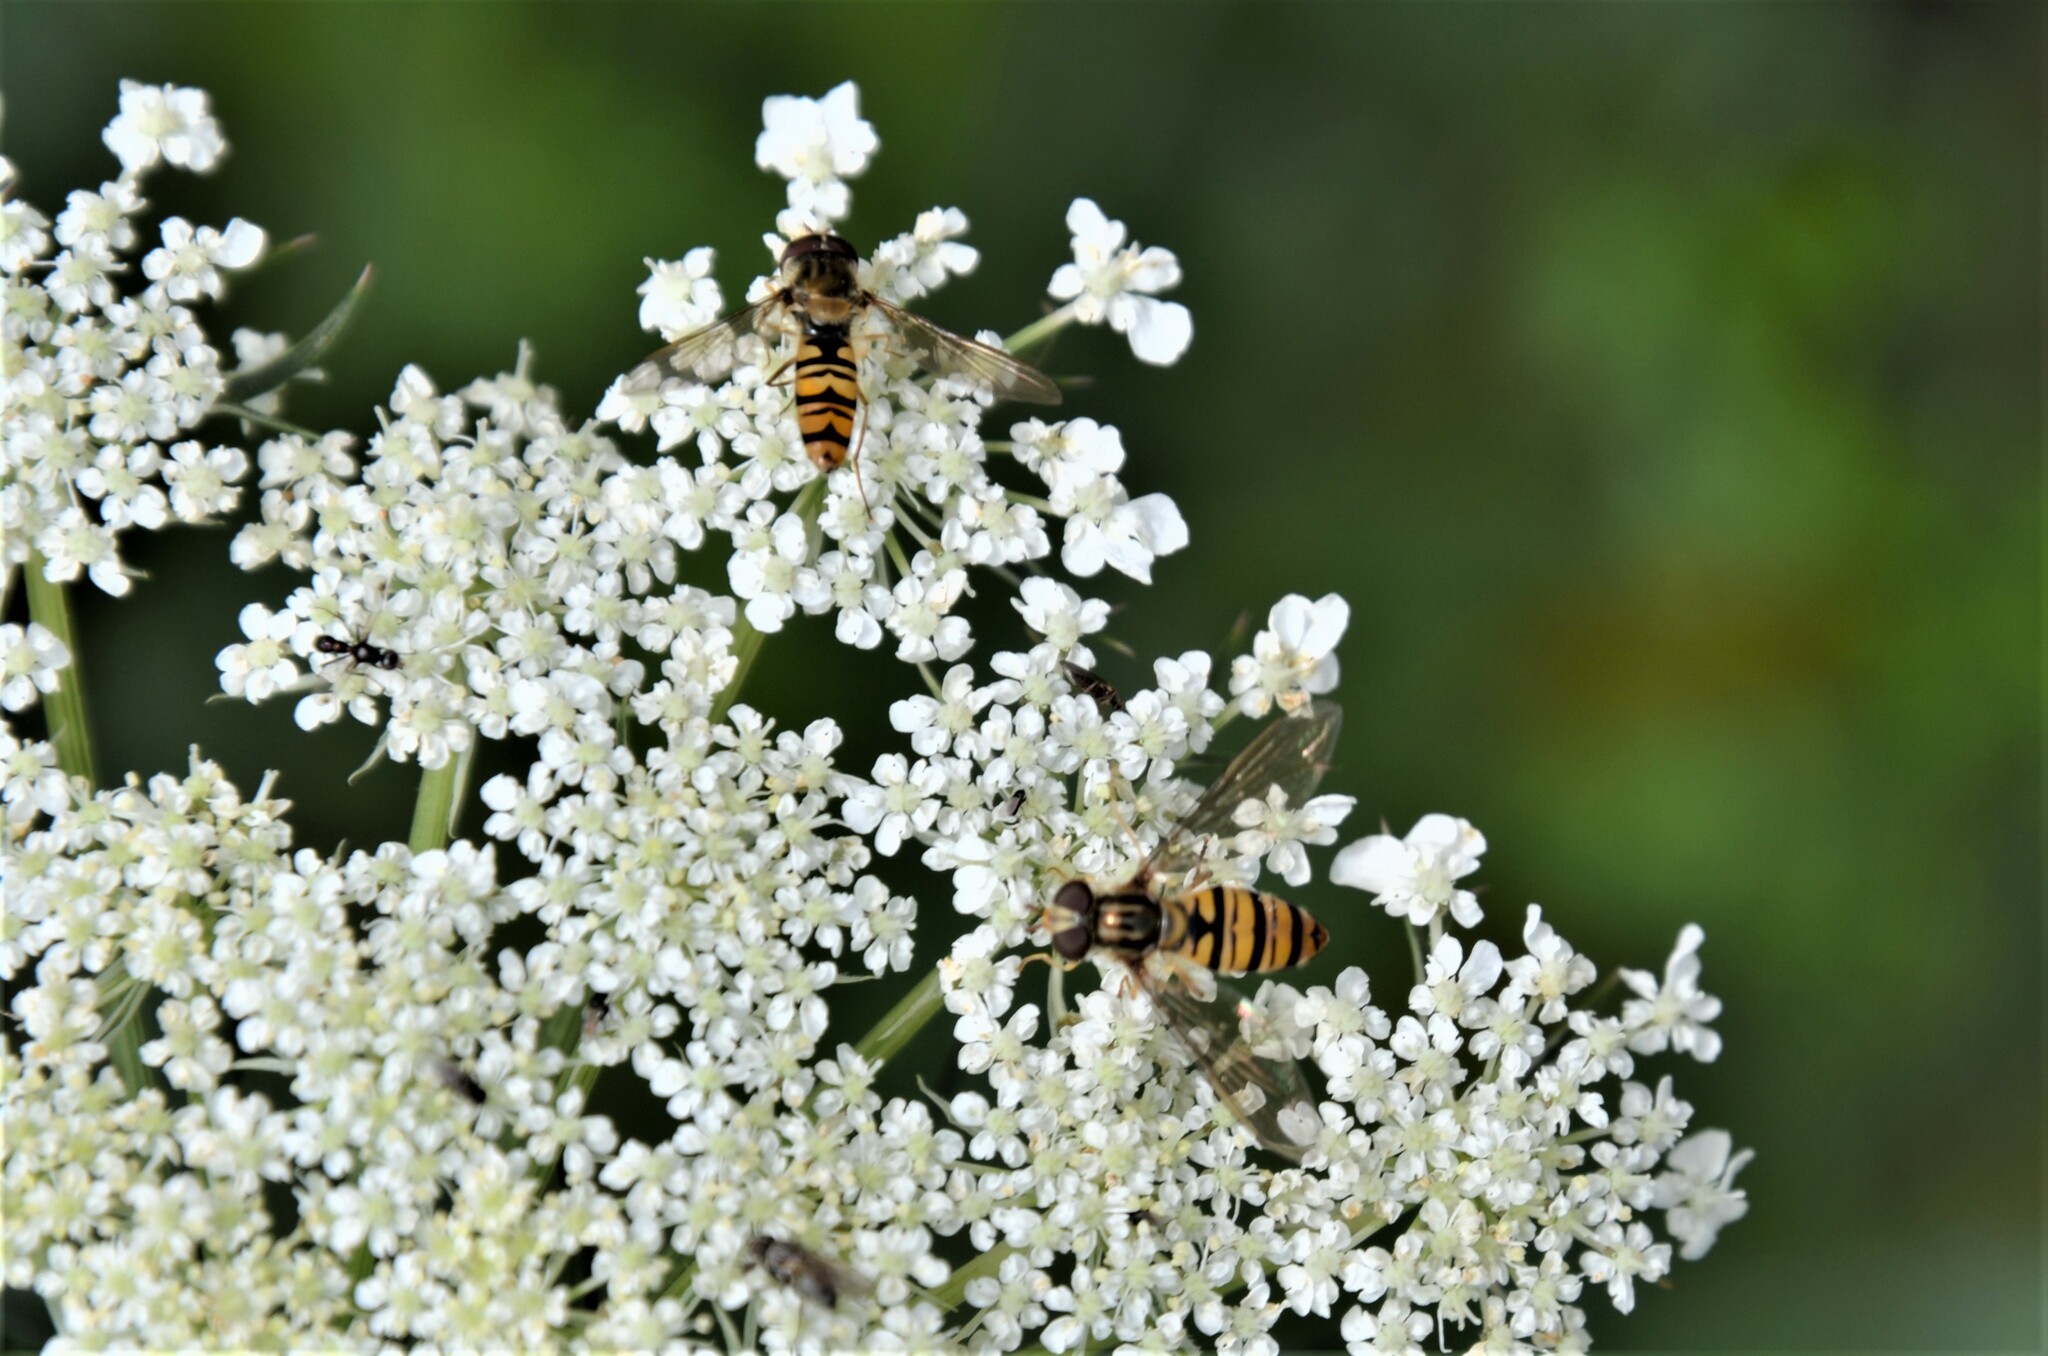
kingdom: Animalia
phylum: Arthropoda
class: Insecta
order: Diptera
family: Syrphidae
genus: Episyrphus
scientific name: Episyrphus balteatus
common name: Marmalade hoverfly
